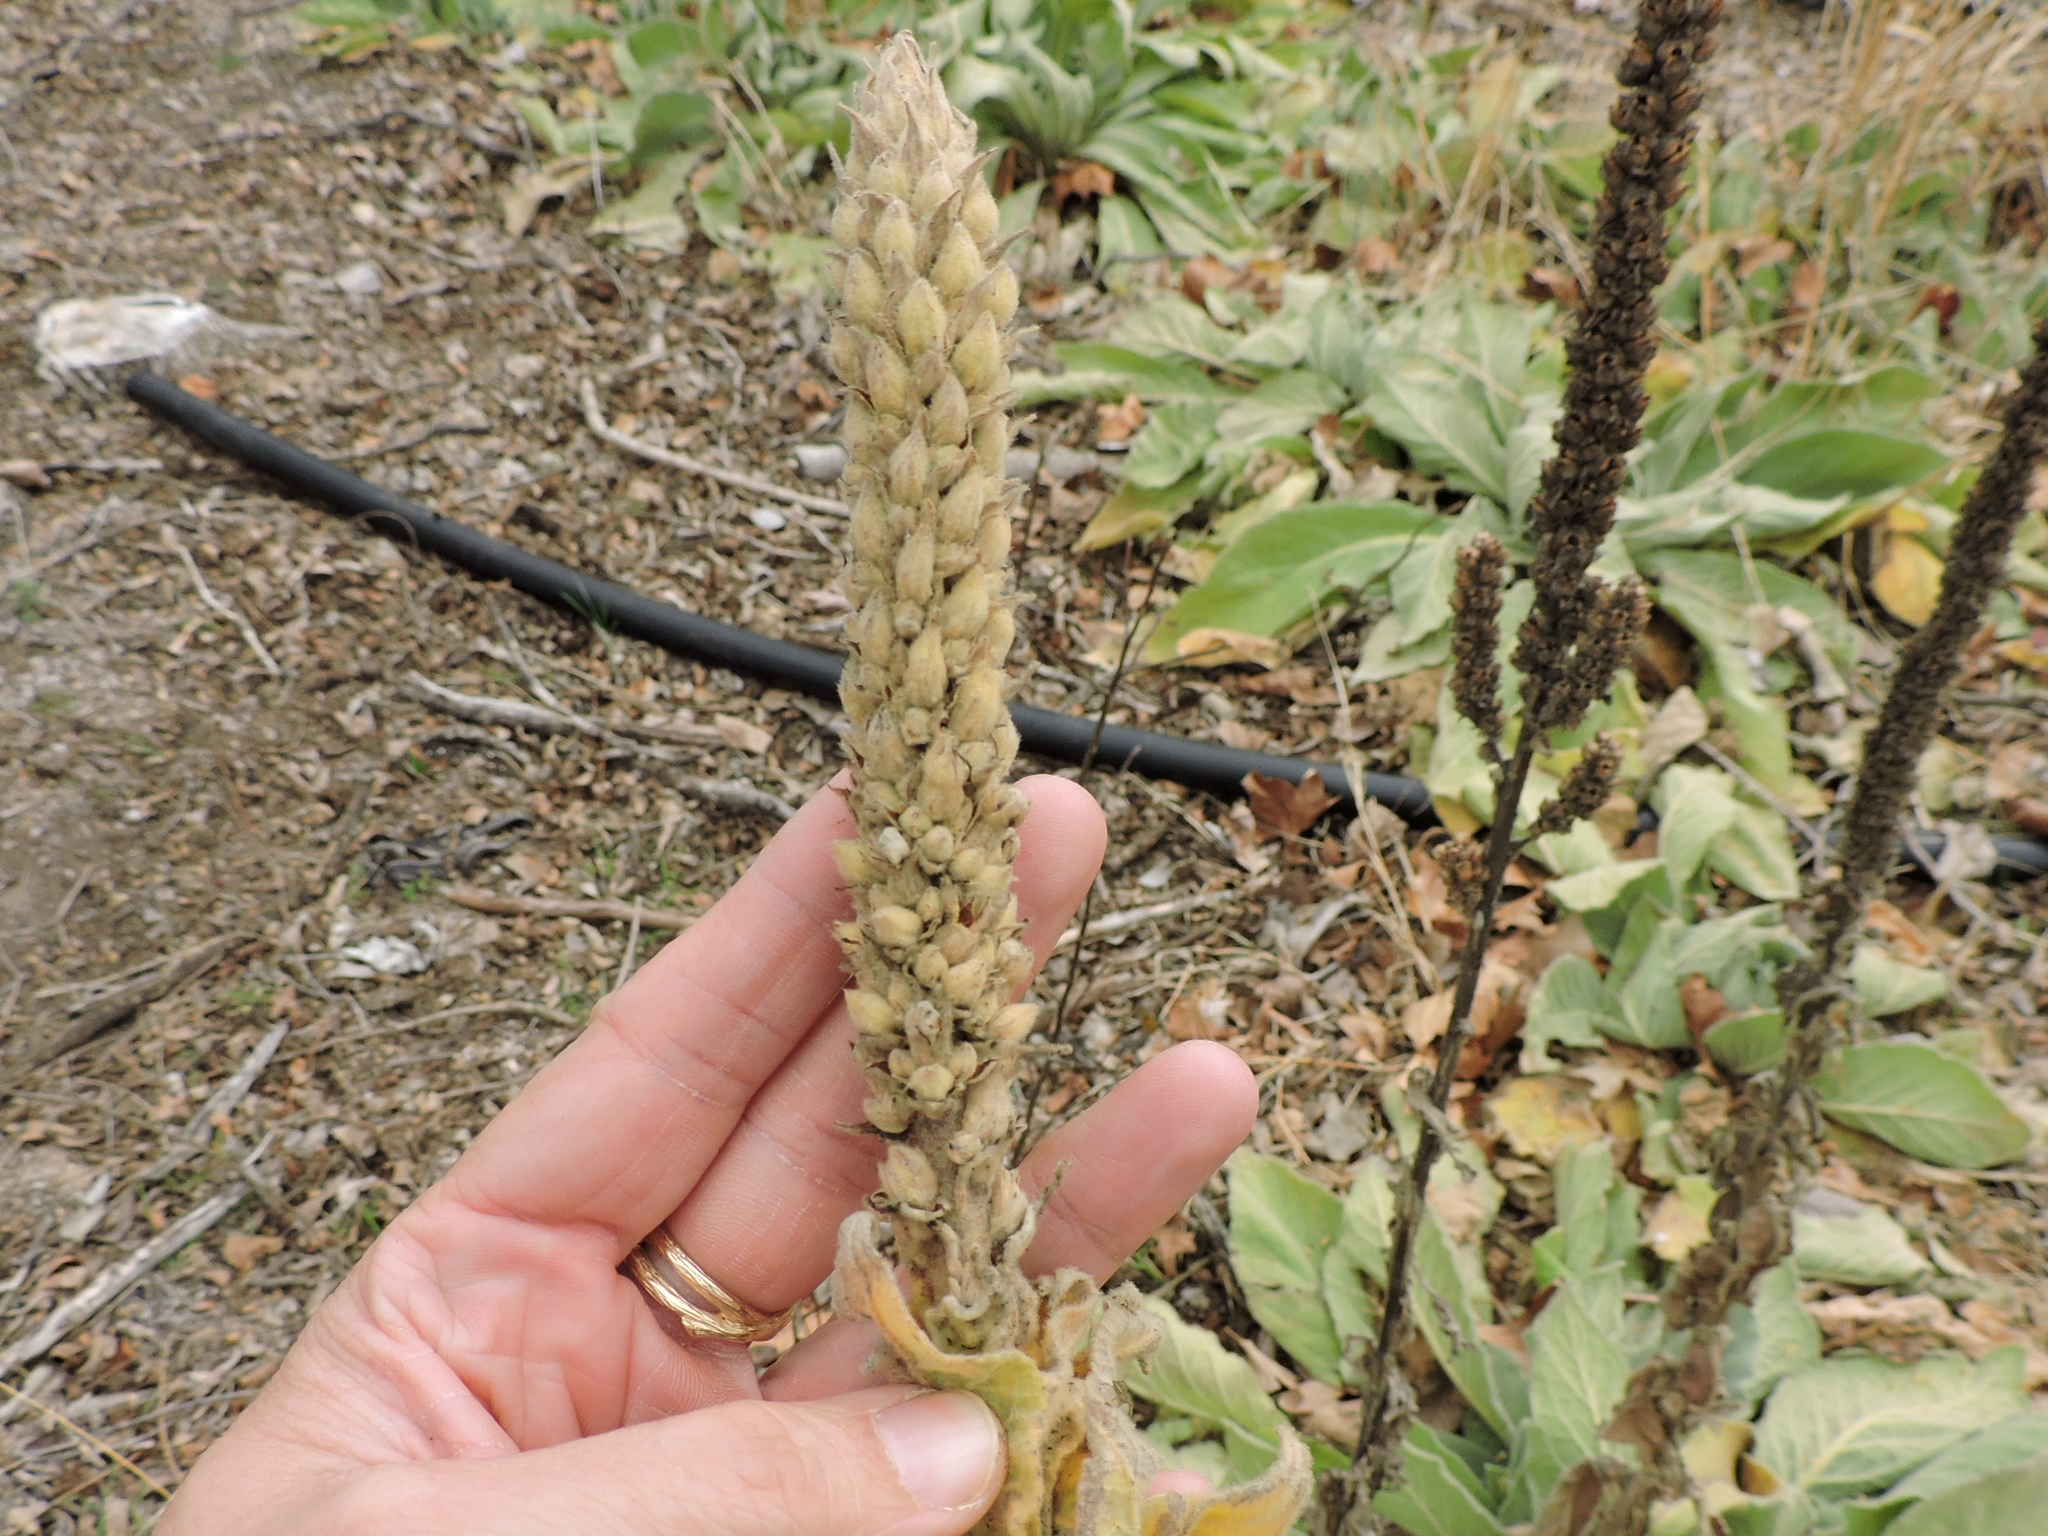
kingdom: Plantae
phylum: Tracheophyta
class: Magnoliopsida
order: Lamiales
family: Scrophulariaceae
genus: Verbascum
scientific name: Verbascum thapsus
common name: Common mullein
